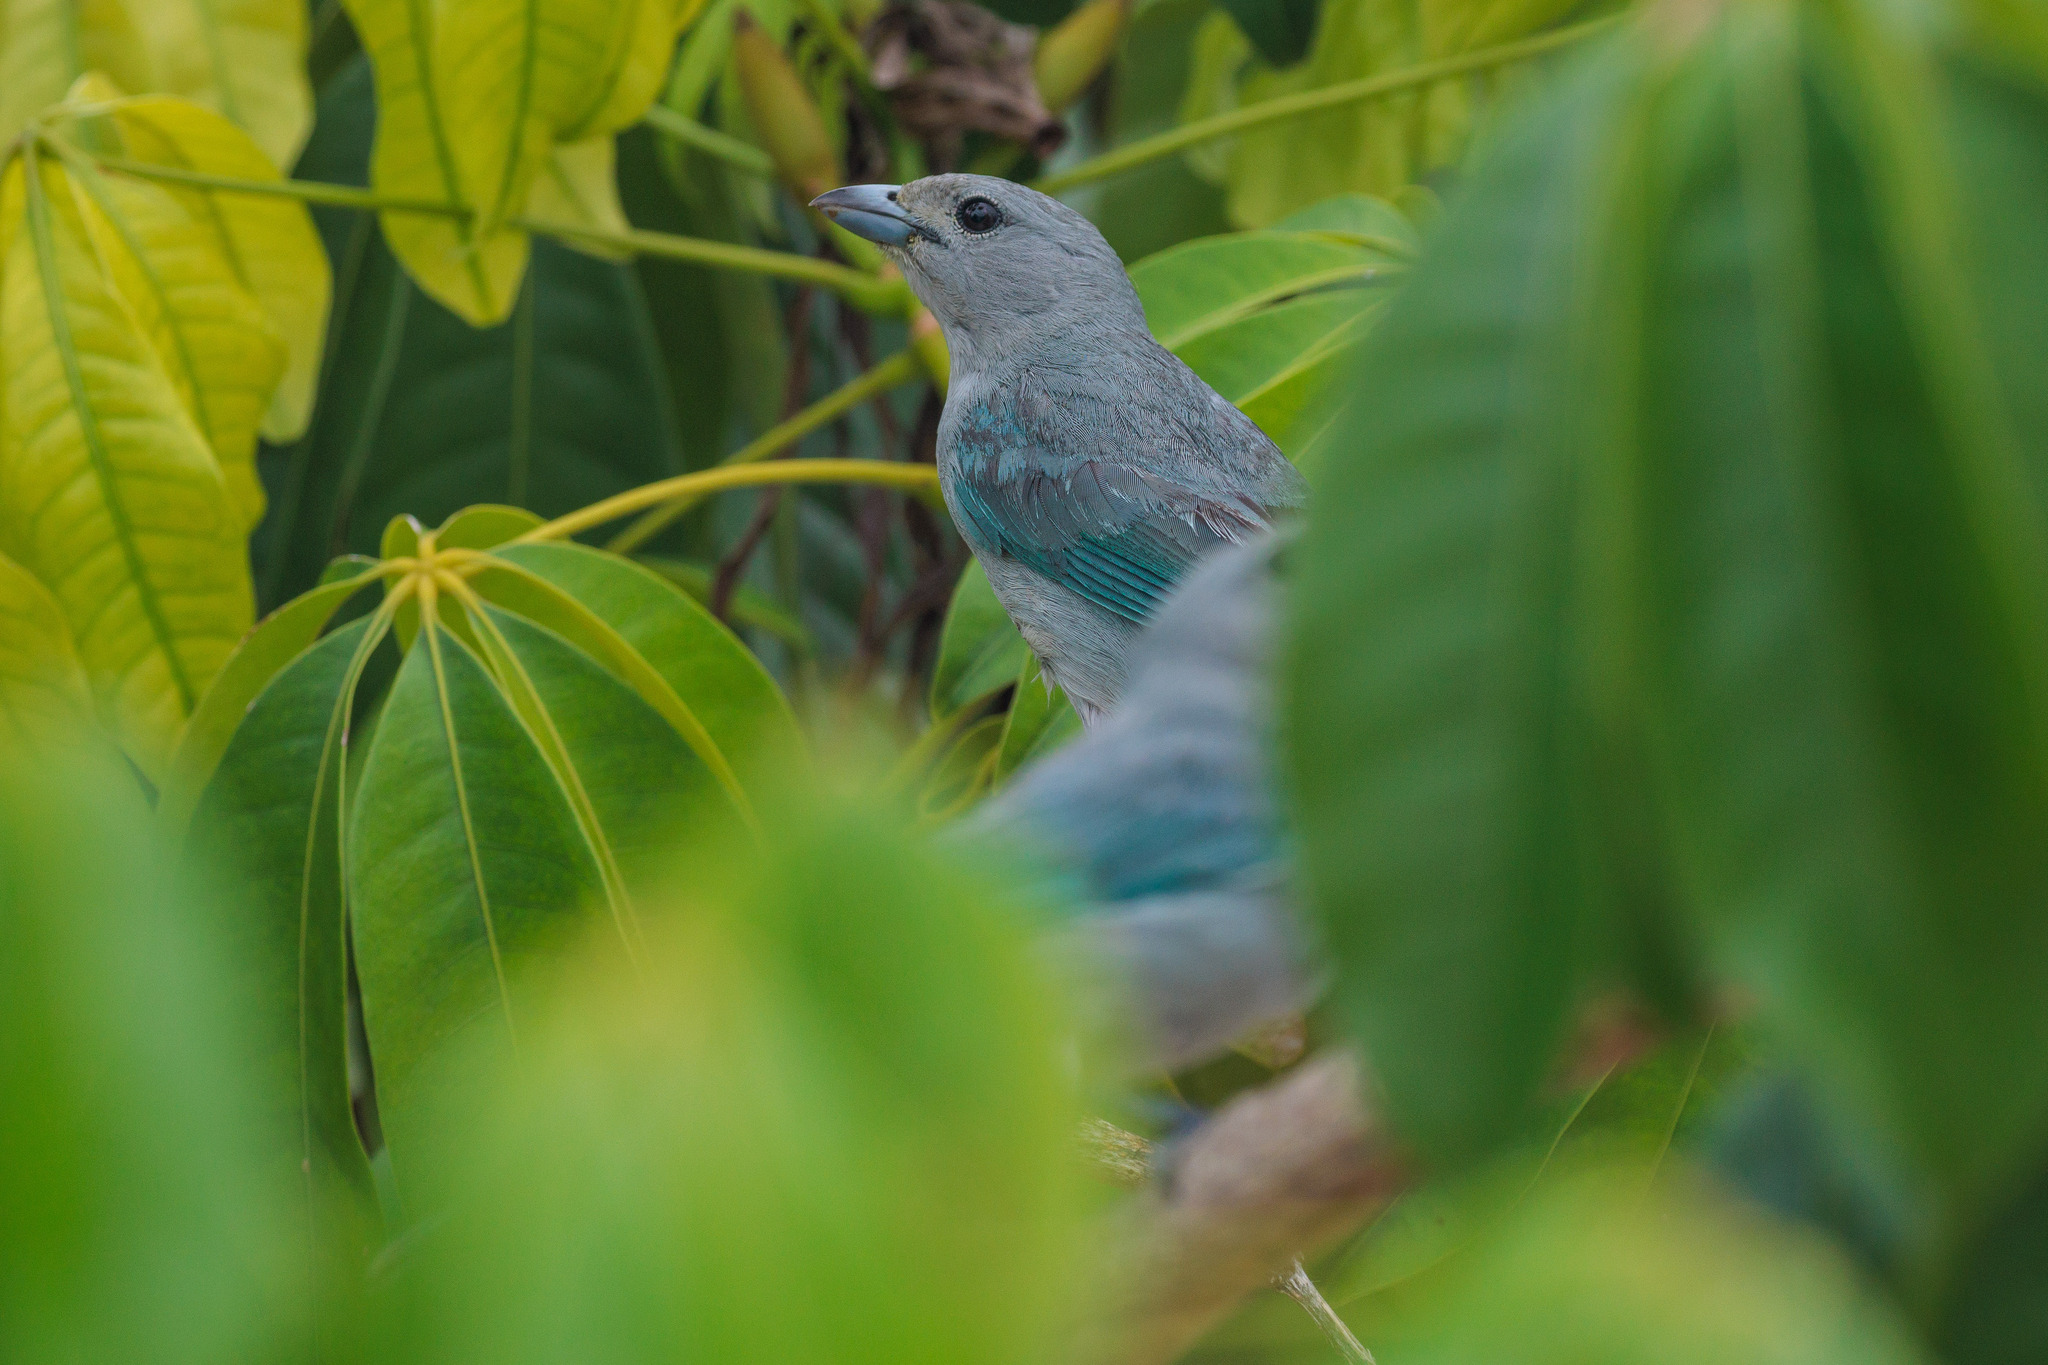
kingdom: Animalia
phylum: Chordata
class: Aves
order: Passeriformes
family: Thraupidae
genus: Thraupis
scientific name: Thraupis sayaca
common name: Sayaca tanager
